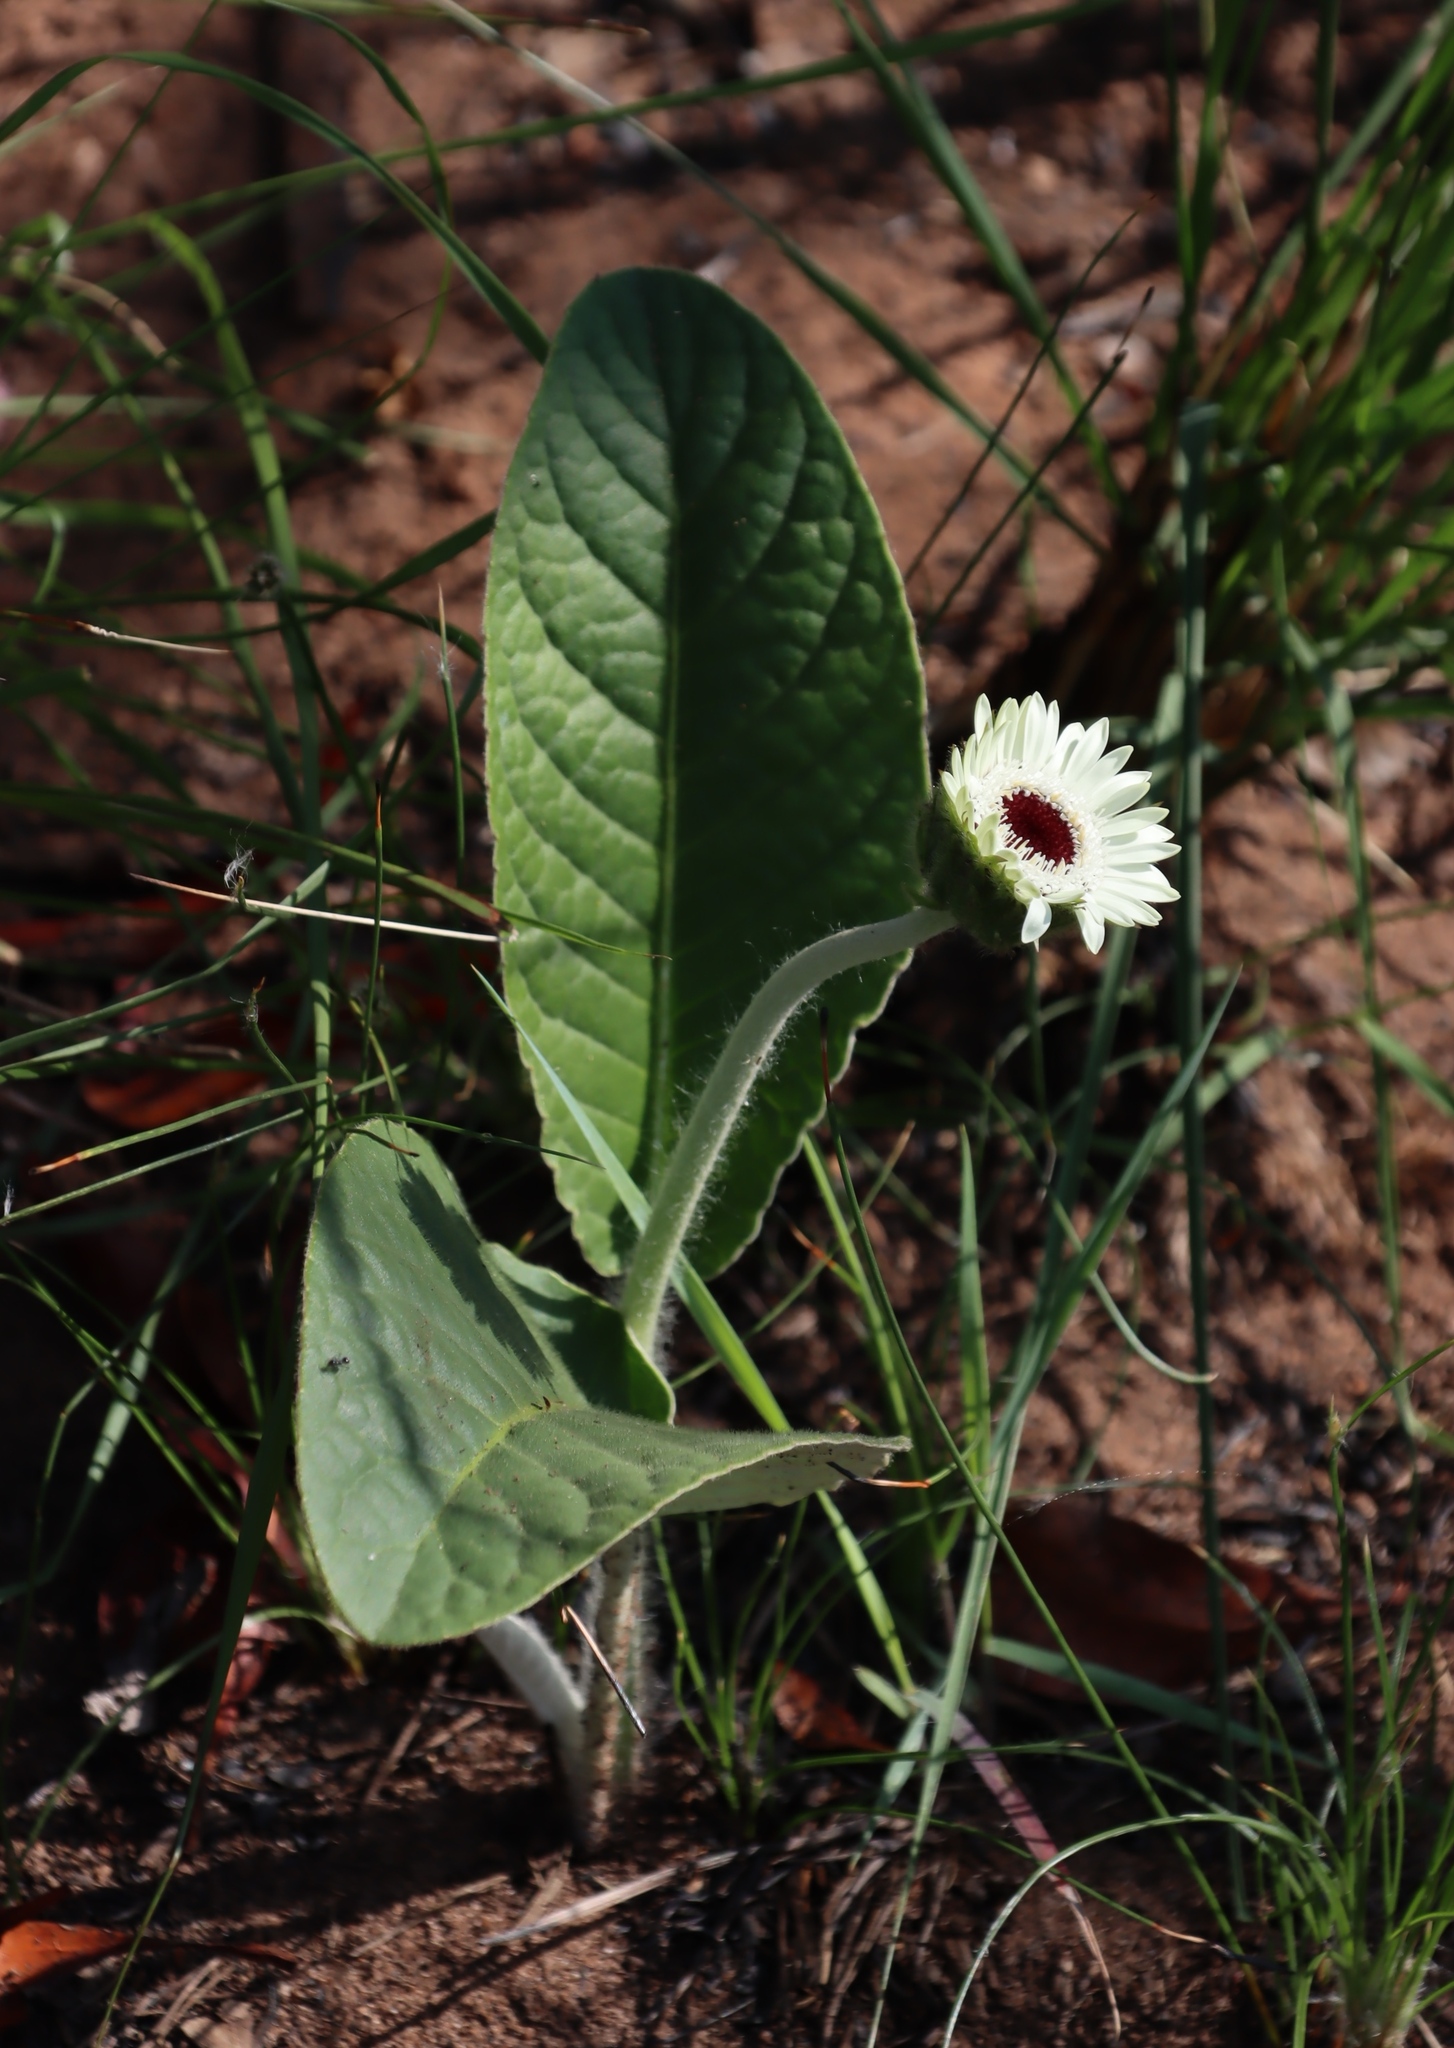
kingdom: Plantae
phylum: Tracheophyta
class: Magnoliopsida
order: Asterales
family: Asteraceae
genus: Gerbera
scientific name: Gerbera ambigua
